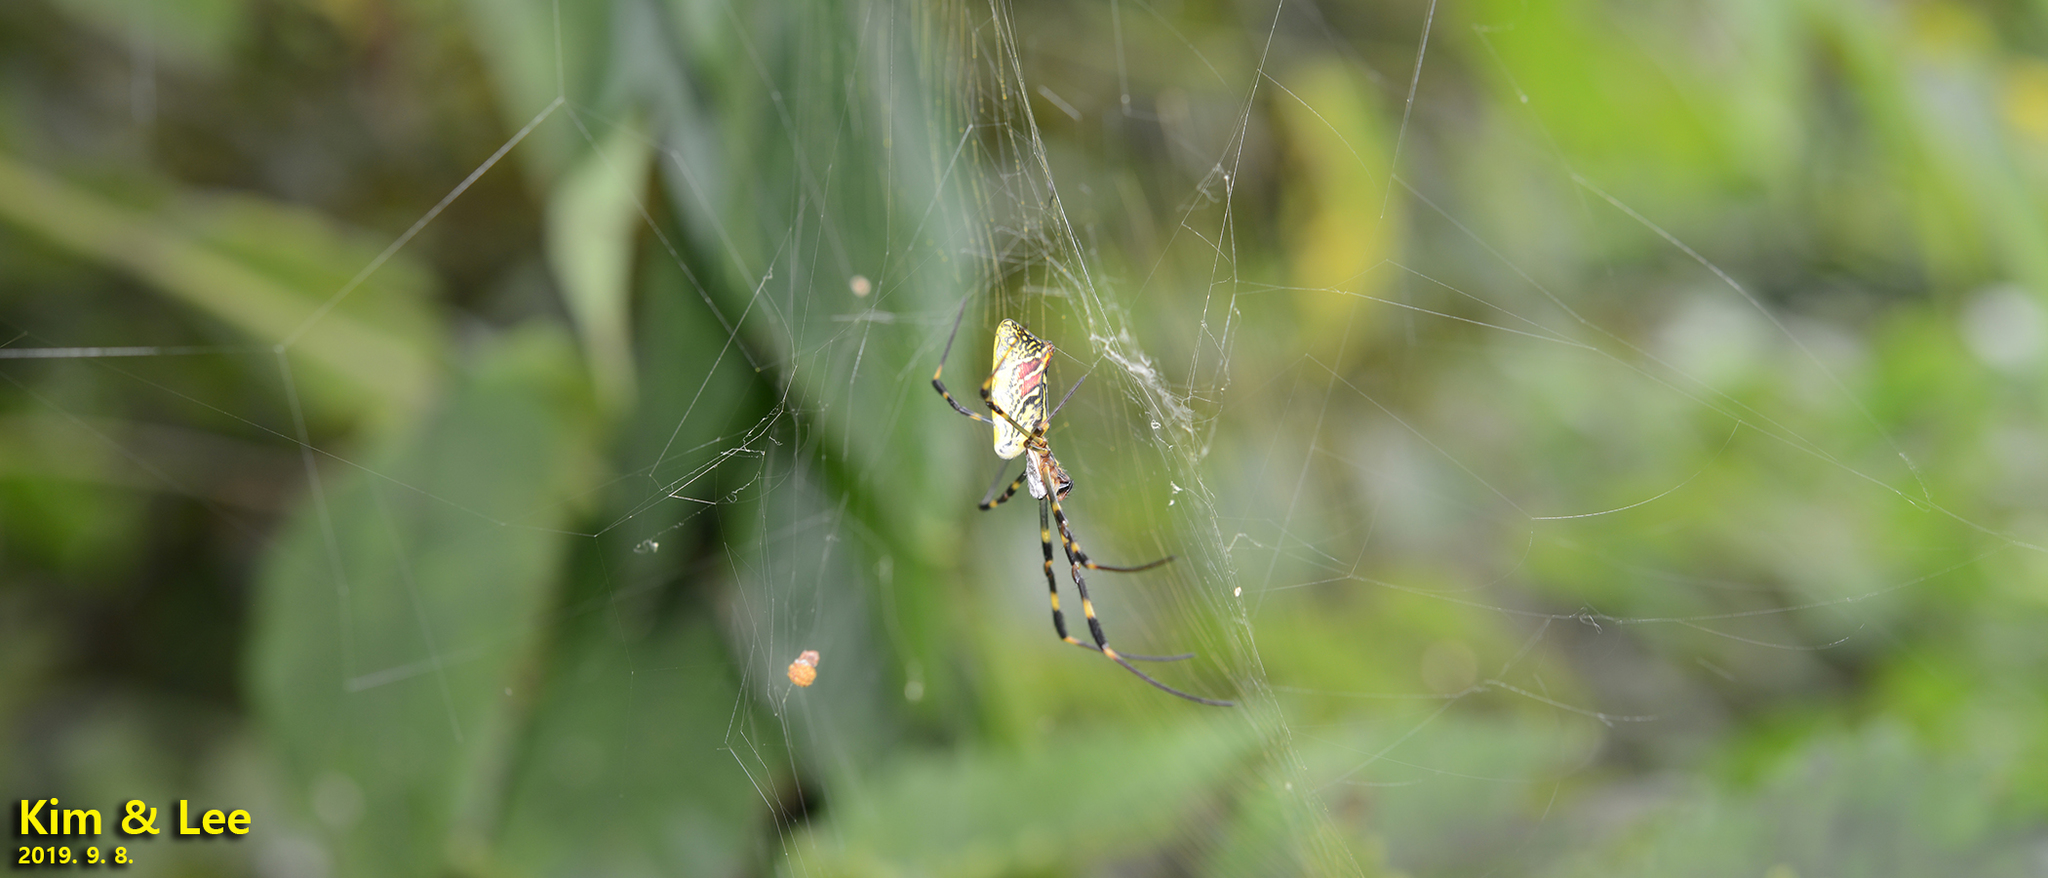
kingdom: Animalia
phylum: Arthropoda
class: Arachnida
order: Araneae
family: Araneidae
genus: Trichonephila
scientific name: Trichonephila clavata
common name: Jorō spider
